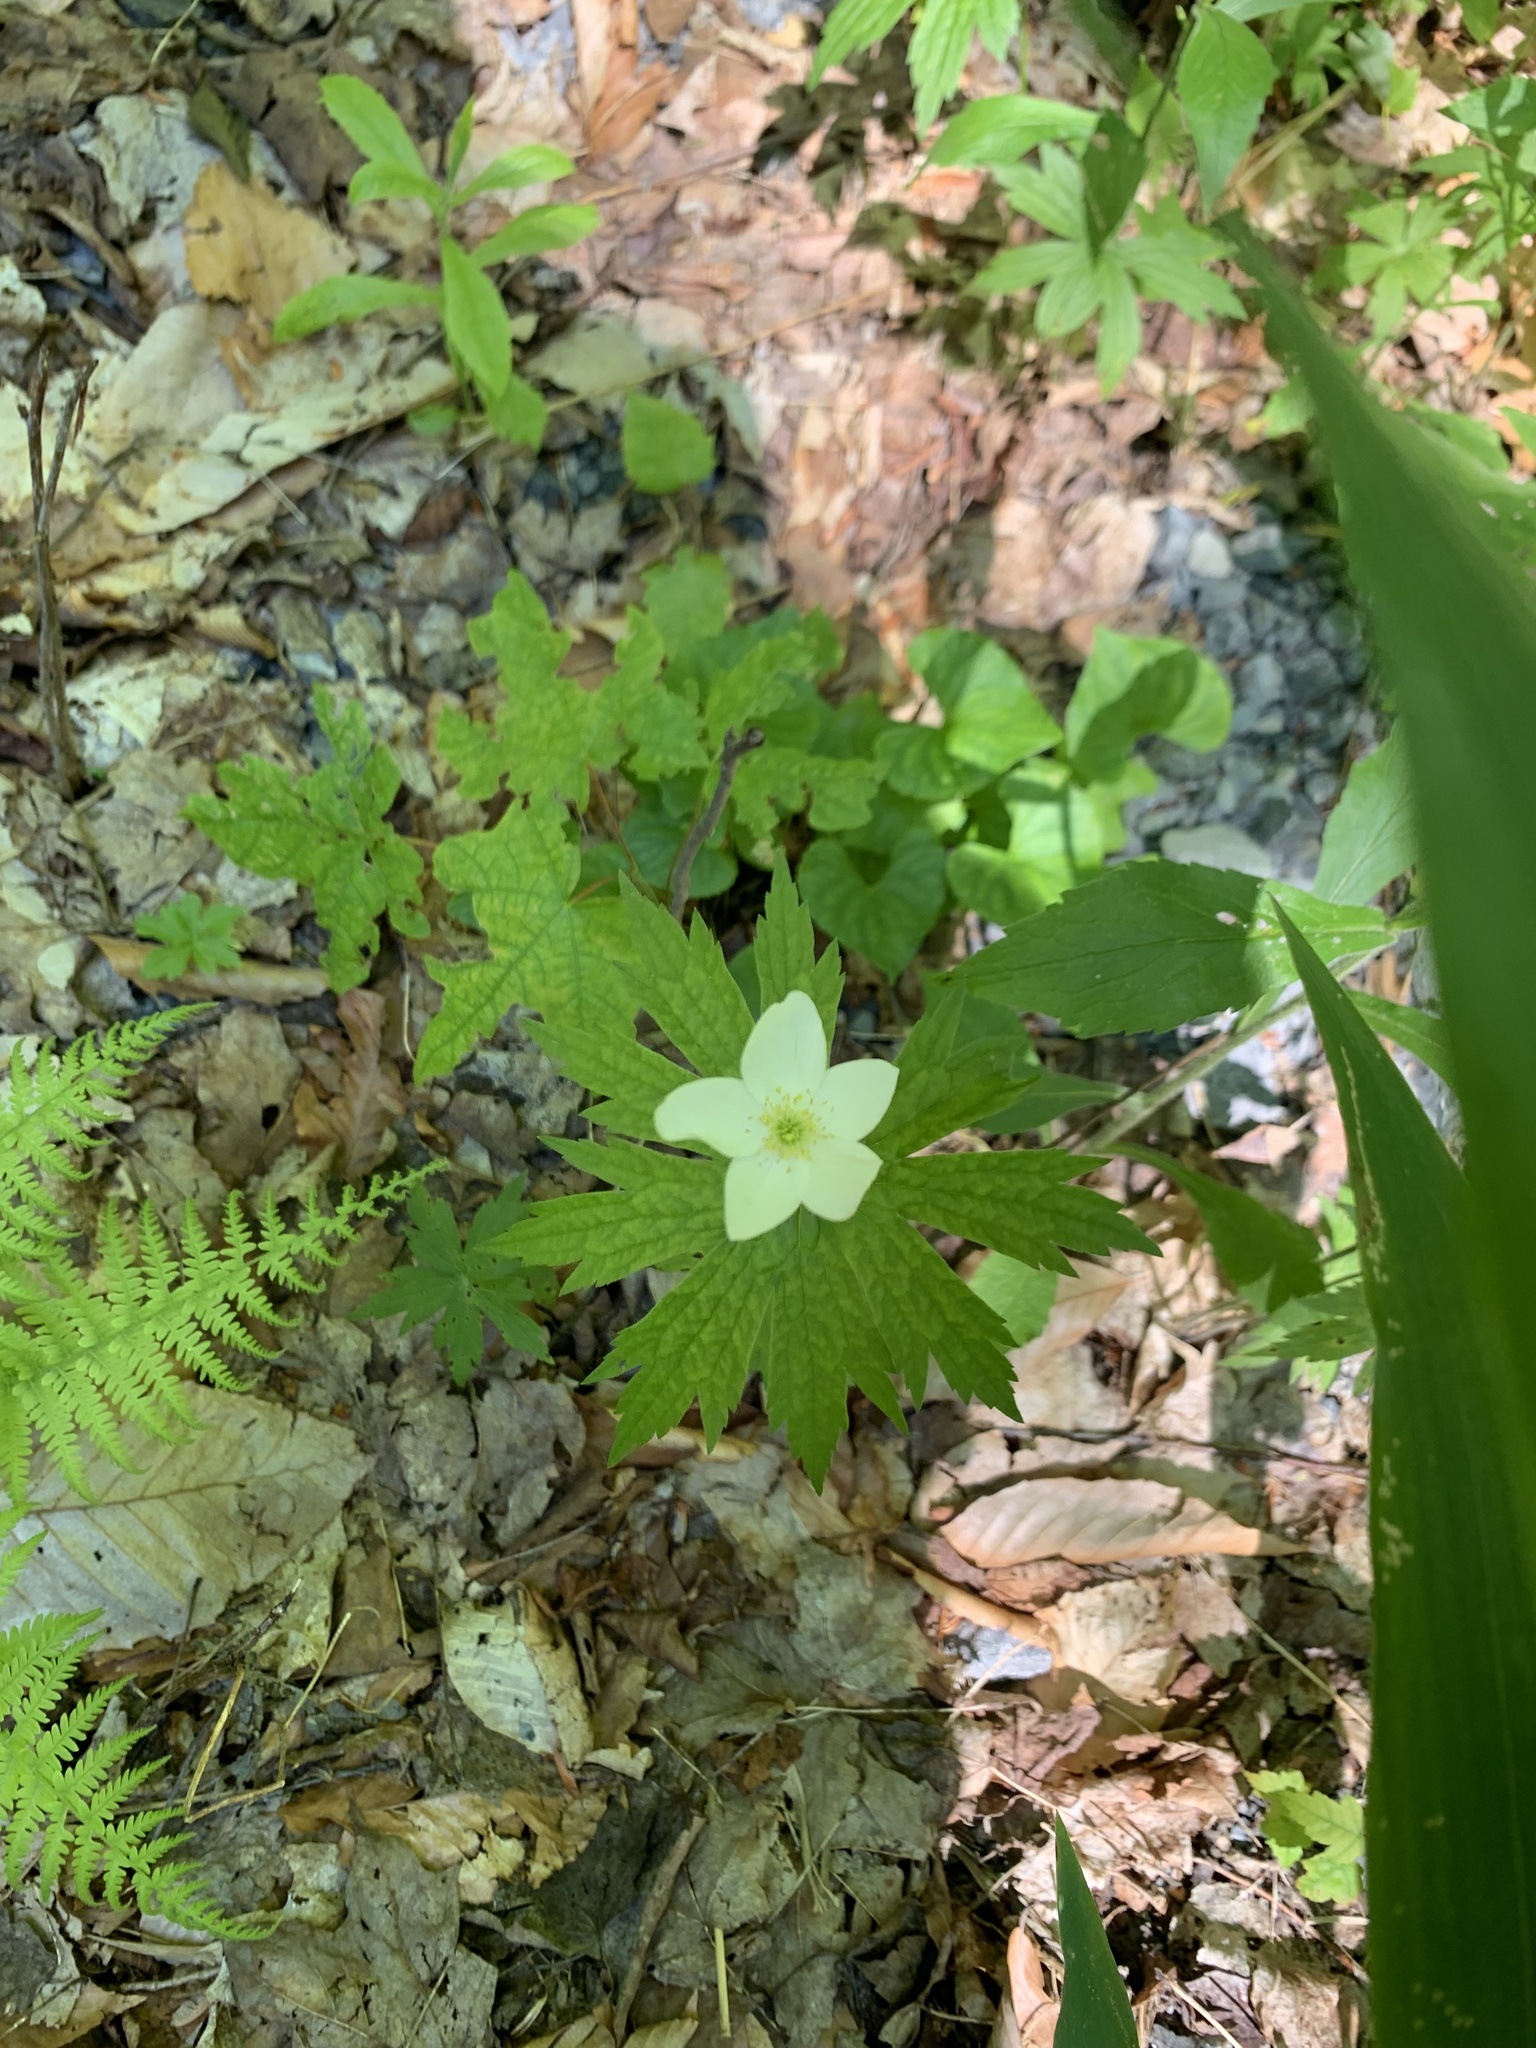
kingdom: Plantae
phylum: Tracheophyta
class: Magnoliopsida
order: Ranunculales
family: Ranunculaceae
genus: Anemonastrum
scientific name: Anemonastrum canadense
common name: Canada anemone
